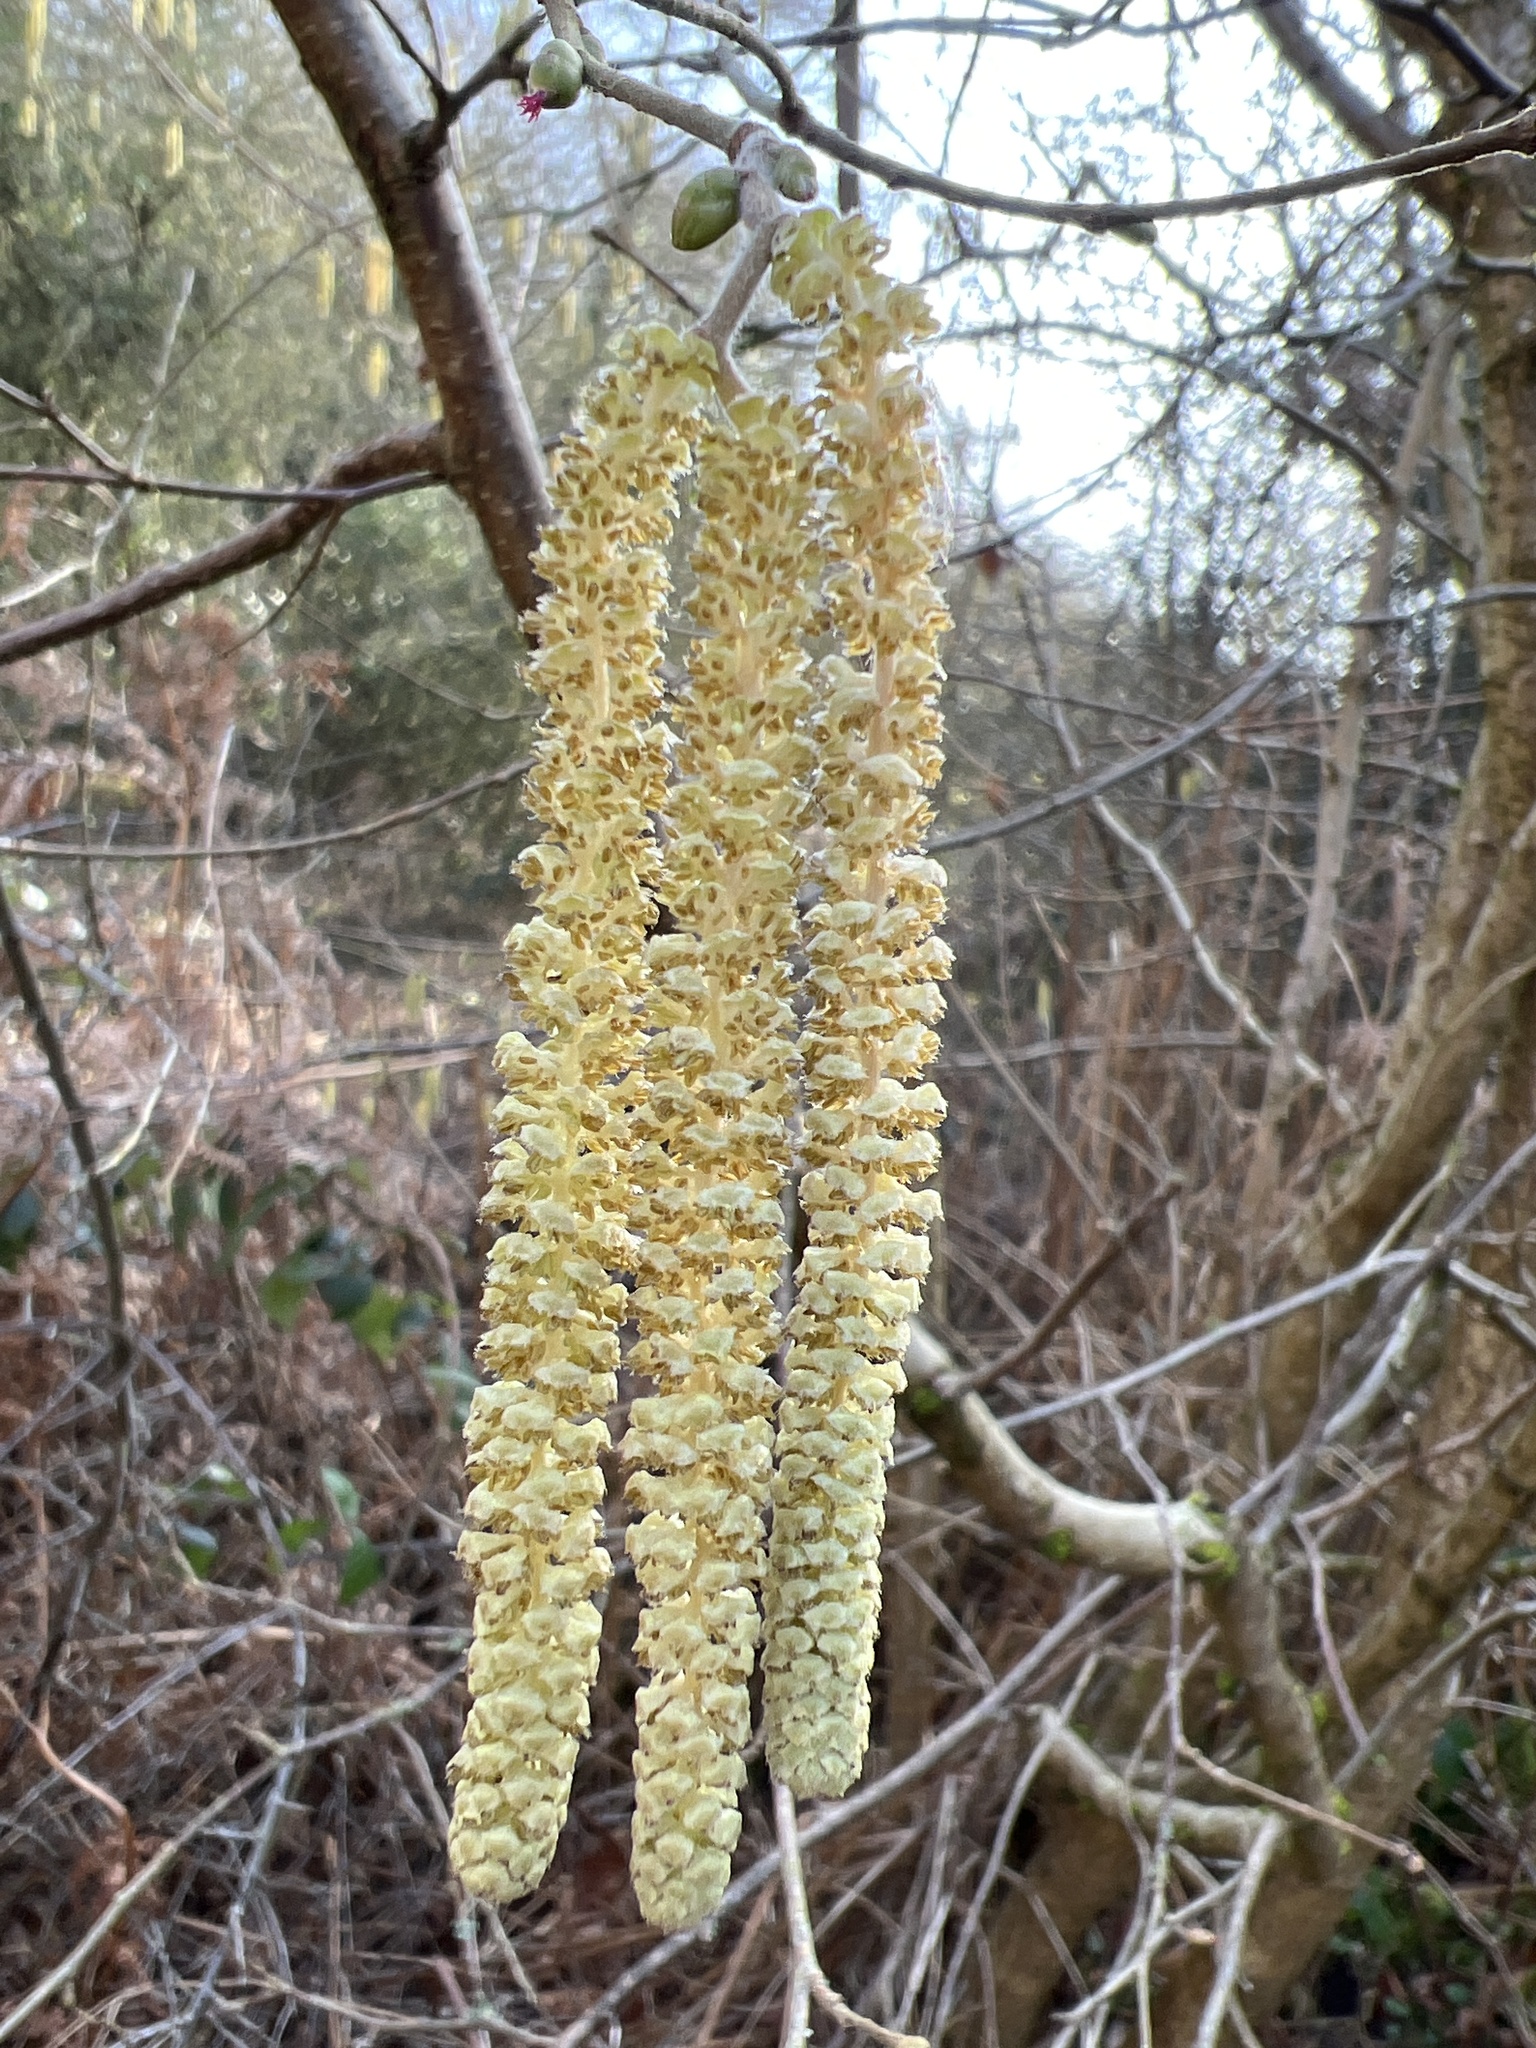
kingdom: Plantae
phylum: Tracheophyta
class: Magnoliopsida
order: Fagales
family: Betulaceae
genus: Corylus
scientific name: Corylus avellana
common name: European hazel
